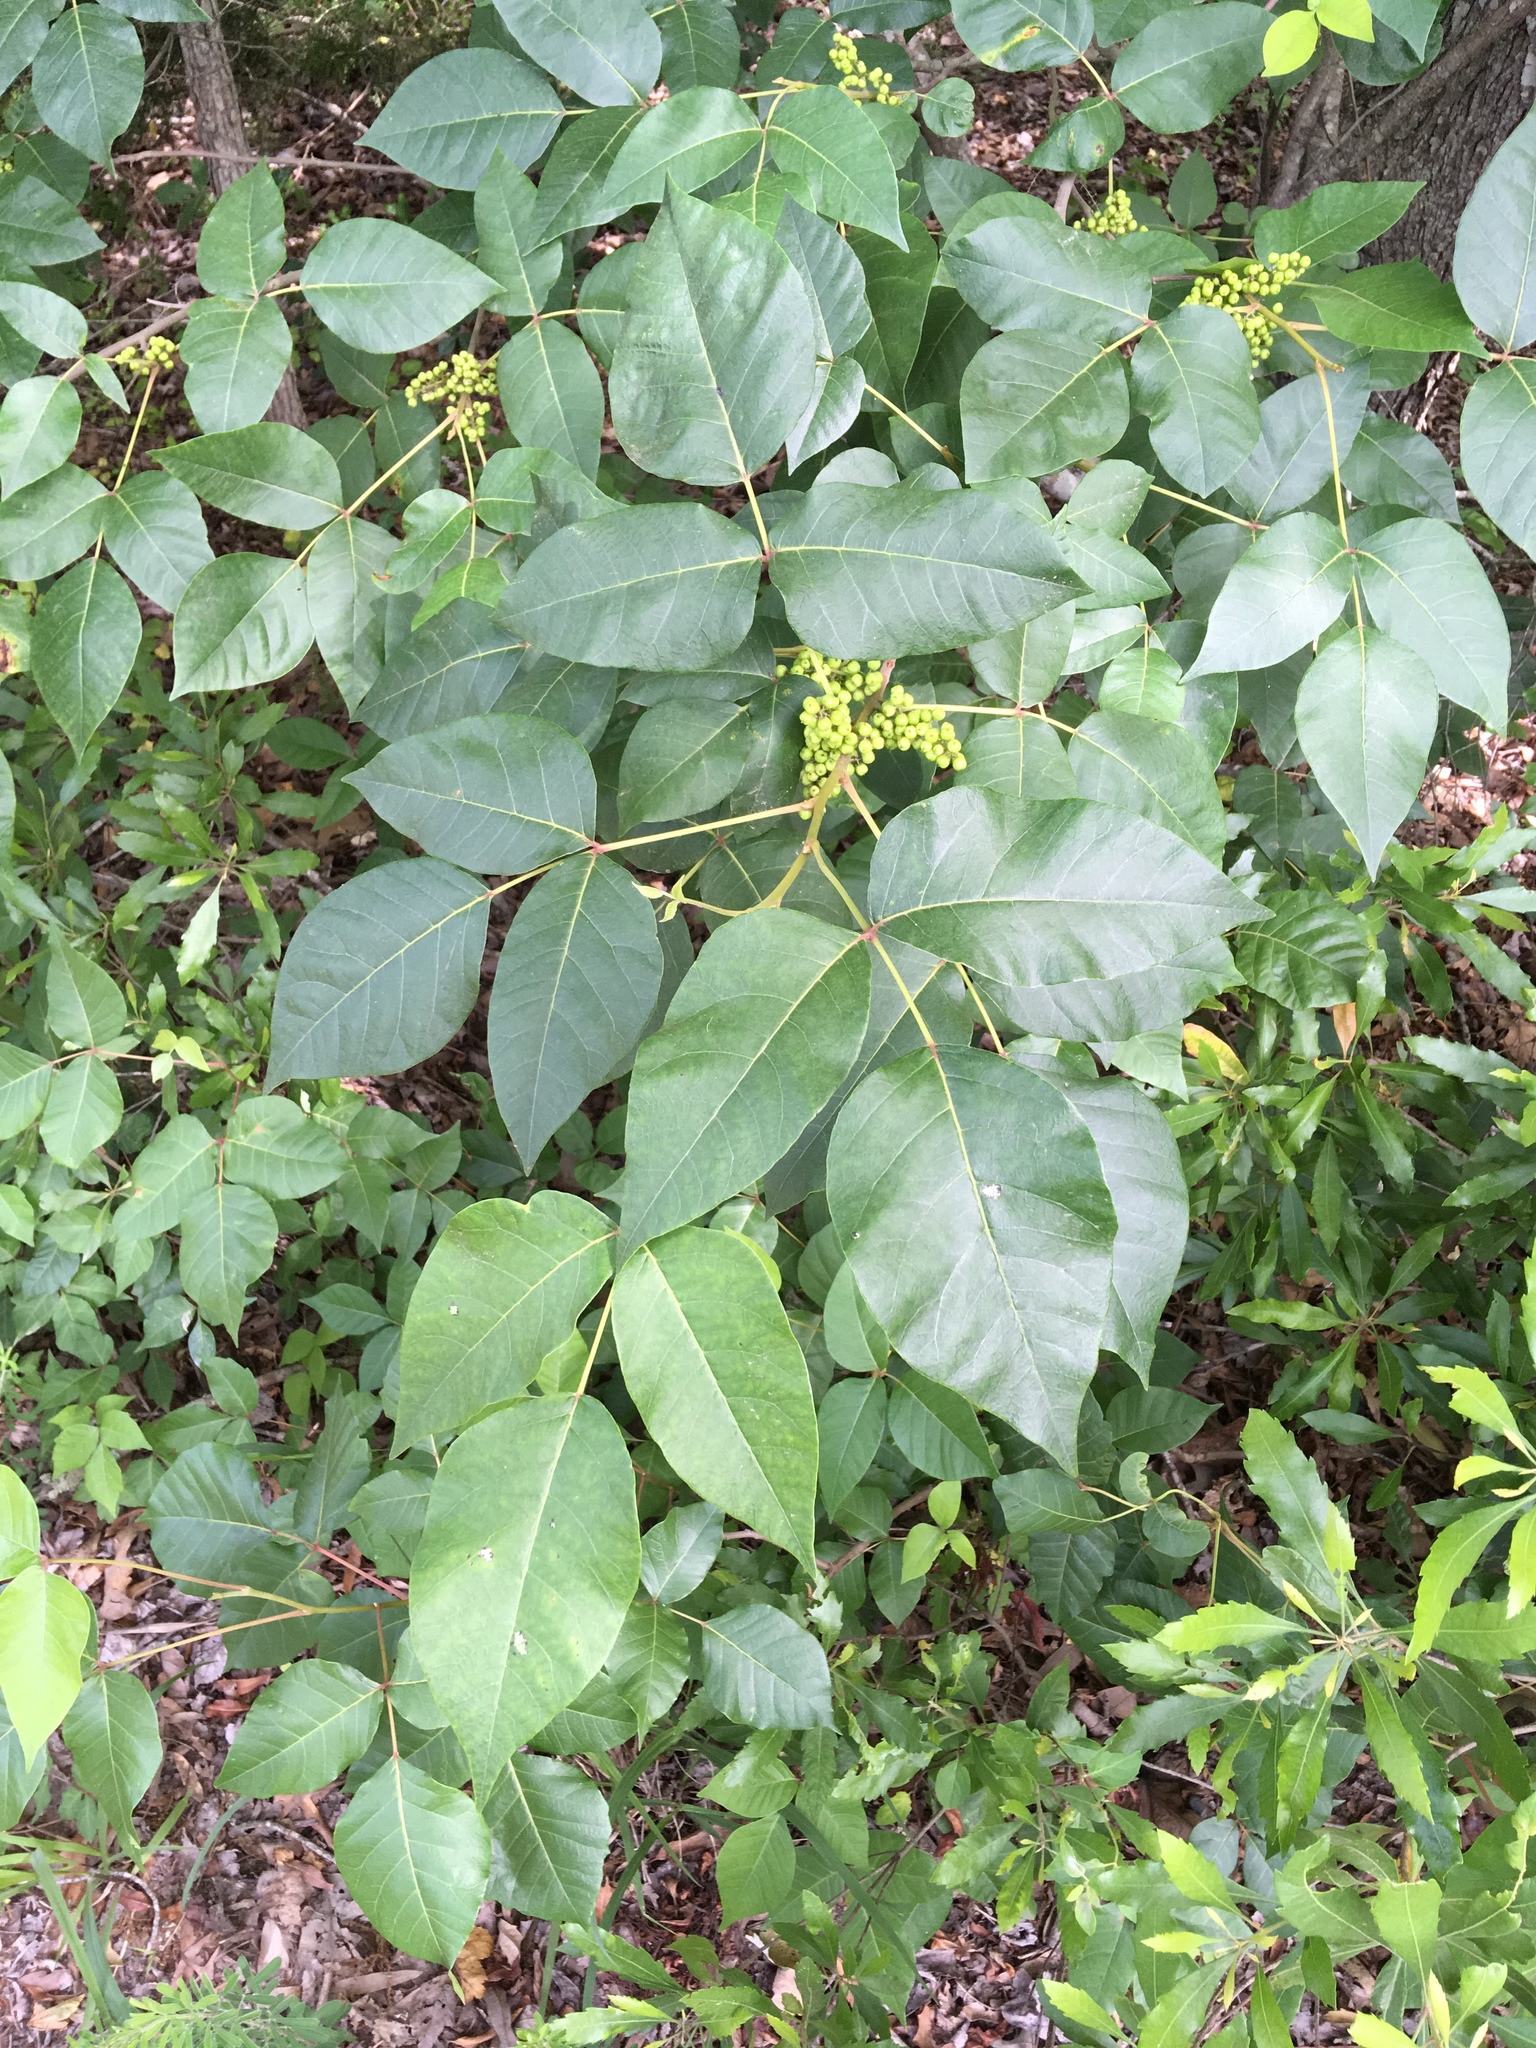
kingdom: Plantae
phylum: Tracheophyta
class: Magnoliopsida
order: Sapindales
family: Anacardiaceae
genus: Toxicodendron
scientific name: Toxicodendron radicans
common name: Poison ivy
